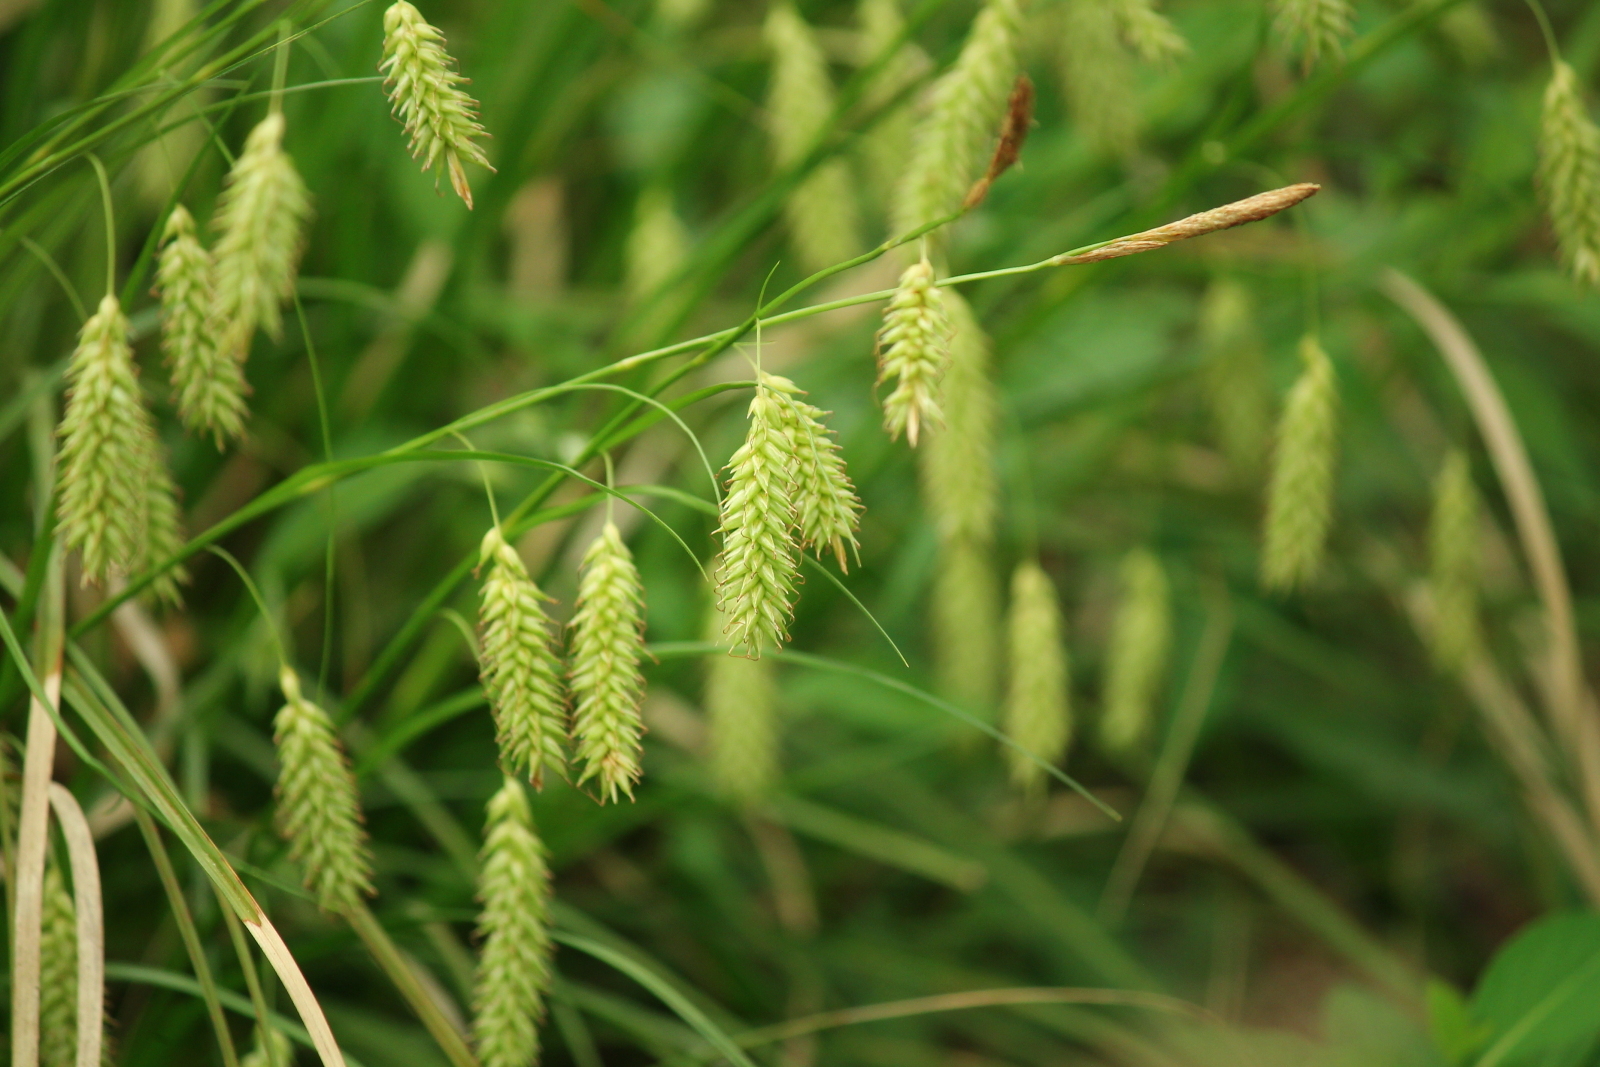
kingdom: Plantae
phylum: Tracheophyta
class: Liliopsida
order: Poales
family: Cyperaceae
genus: Carex
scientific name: Carex cherokeensis
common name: Cherokee sedge
